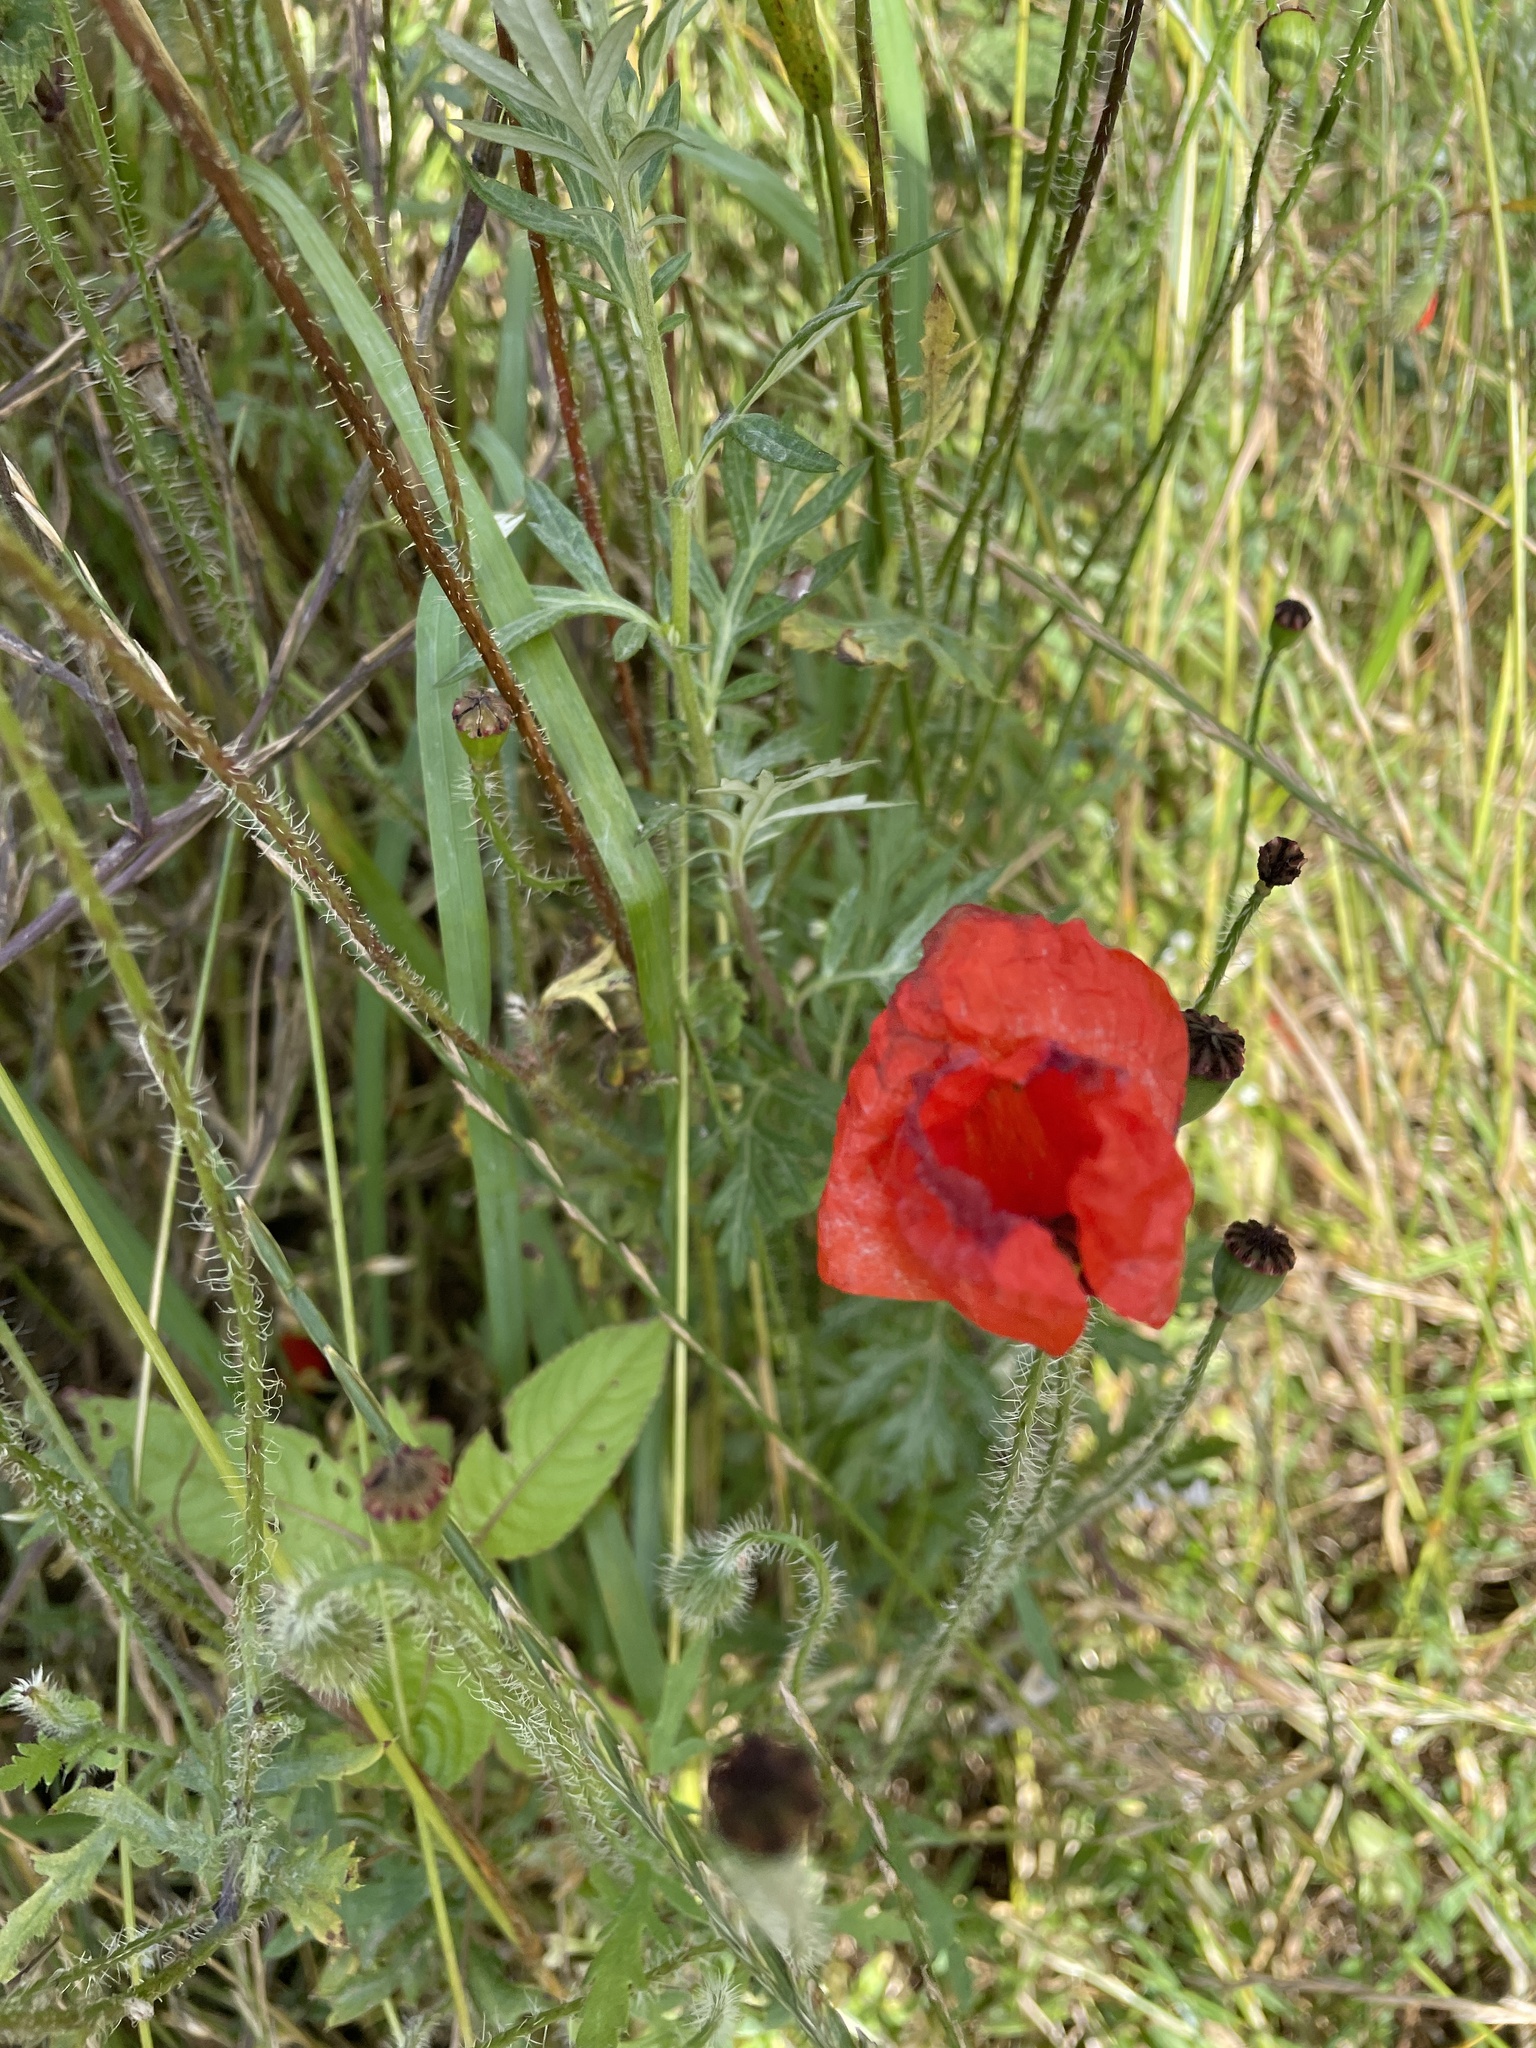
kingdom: Plantae
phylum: Tracheophyta
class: Magnoliopsida
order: Ranunculales
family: Papaveraceae
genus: Papaver
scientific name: Papaver rhoeas
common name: Corn poppy
